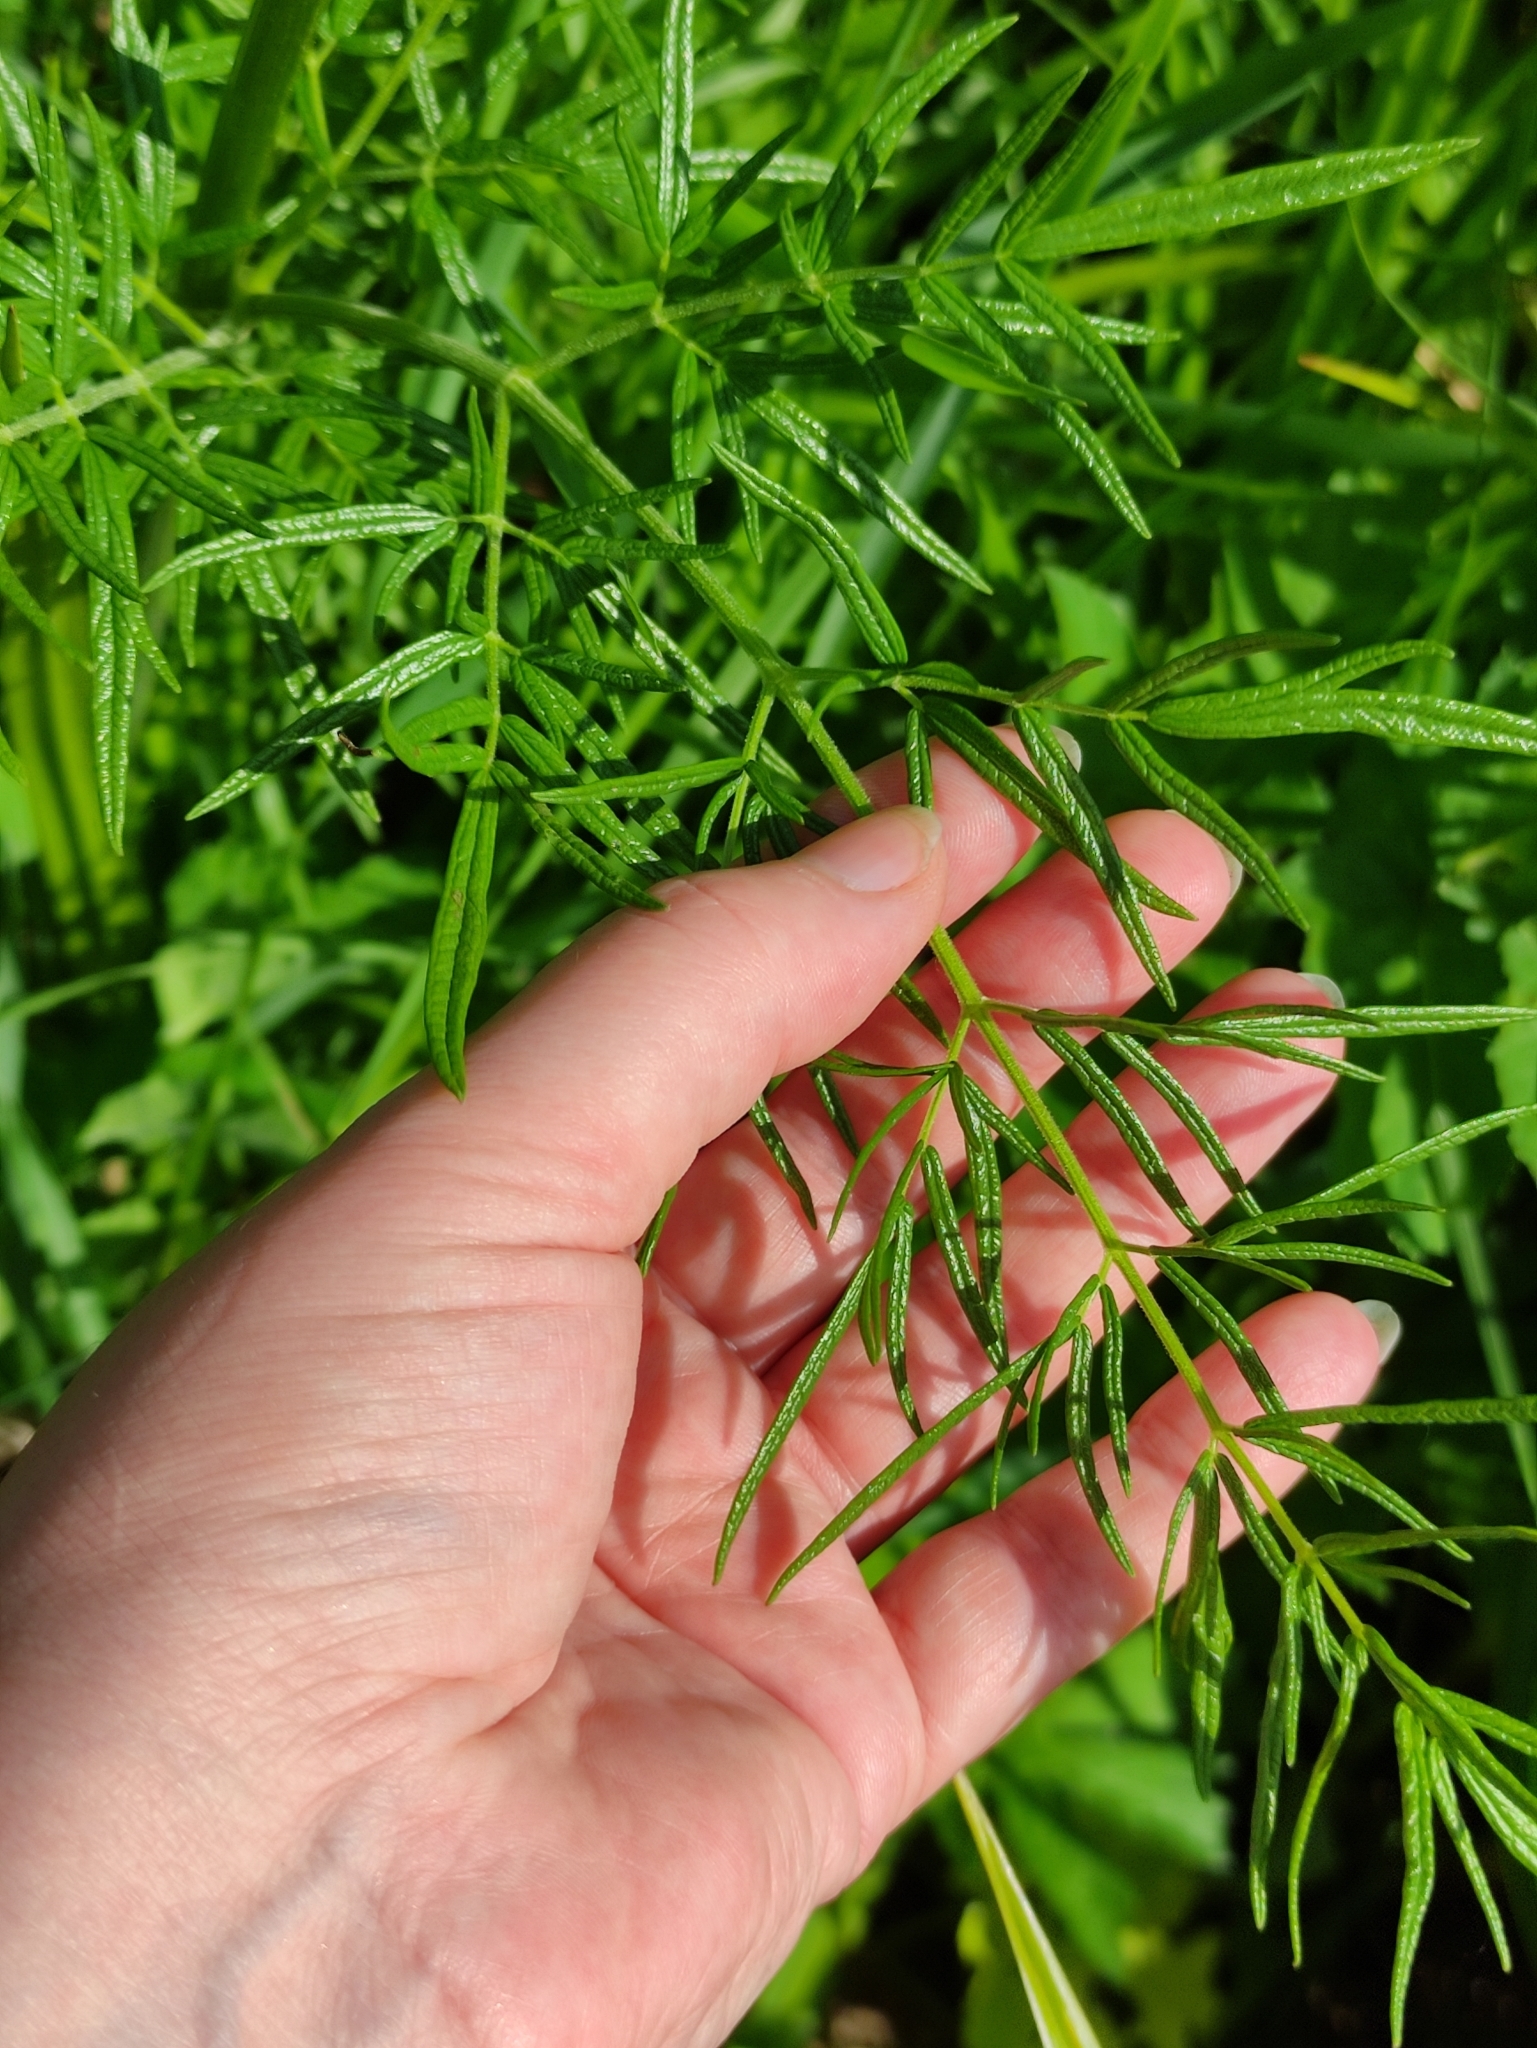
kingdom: Plantae
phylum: Tracheophyta
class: Magnoliopsida
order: Ranunculales
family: Ranunculaceae
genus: Thalictrum
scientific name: Thalictrum lucidum
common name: Shining meadow-rue
